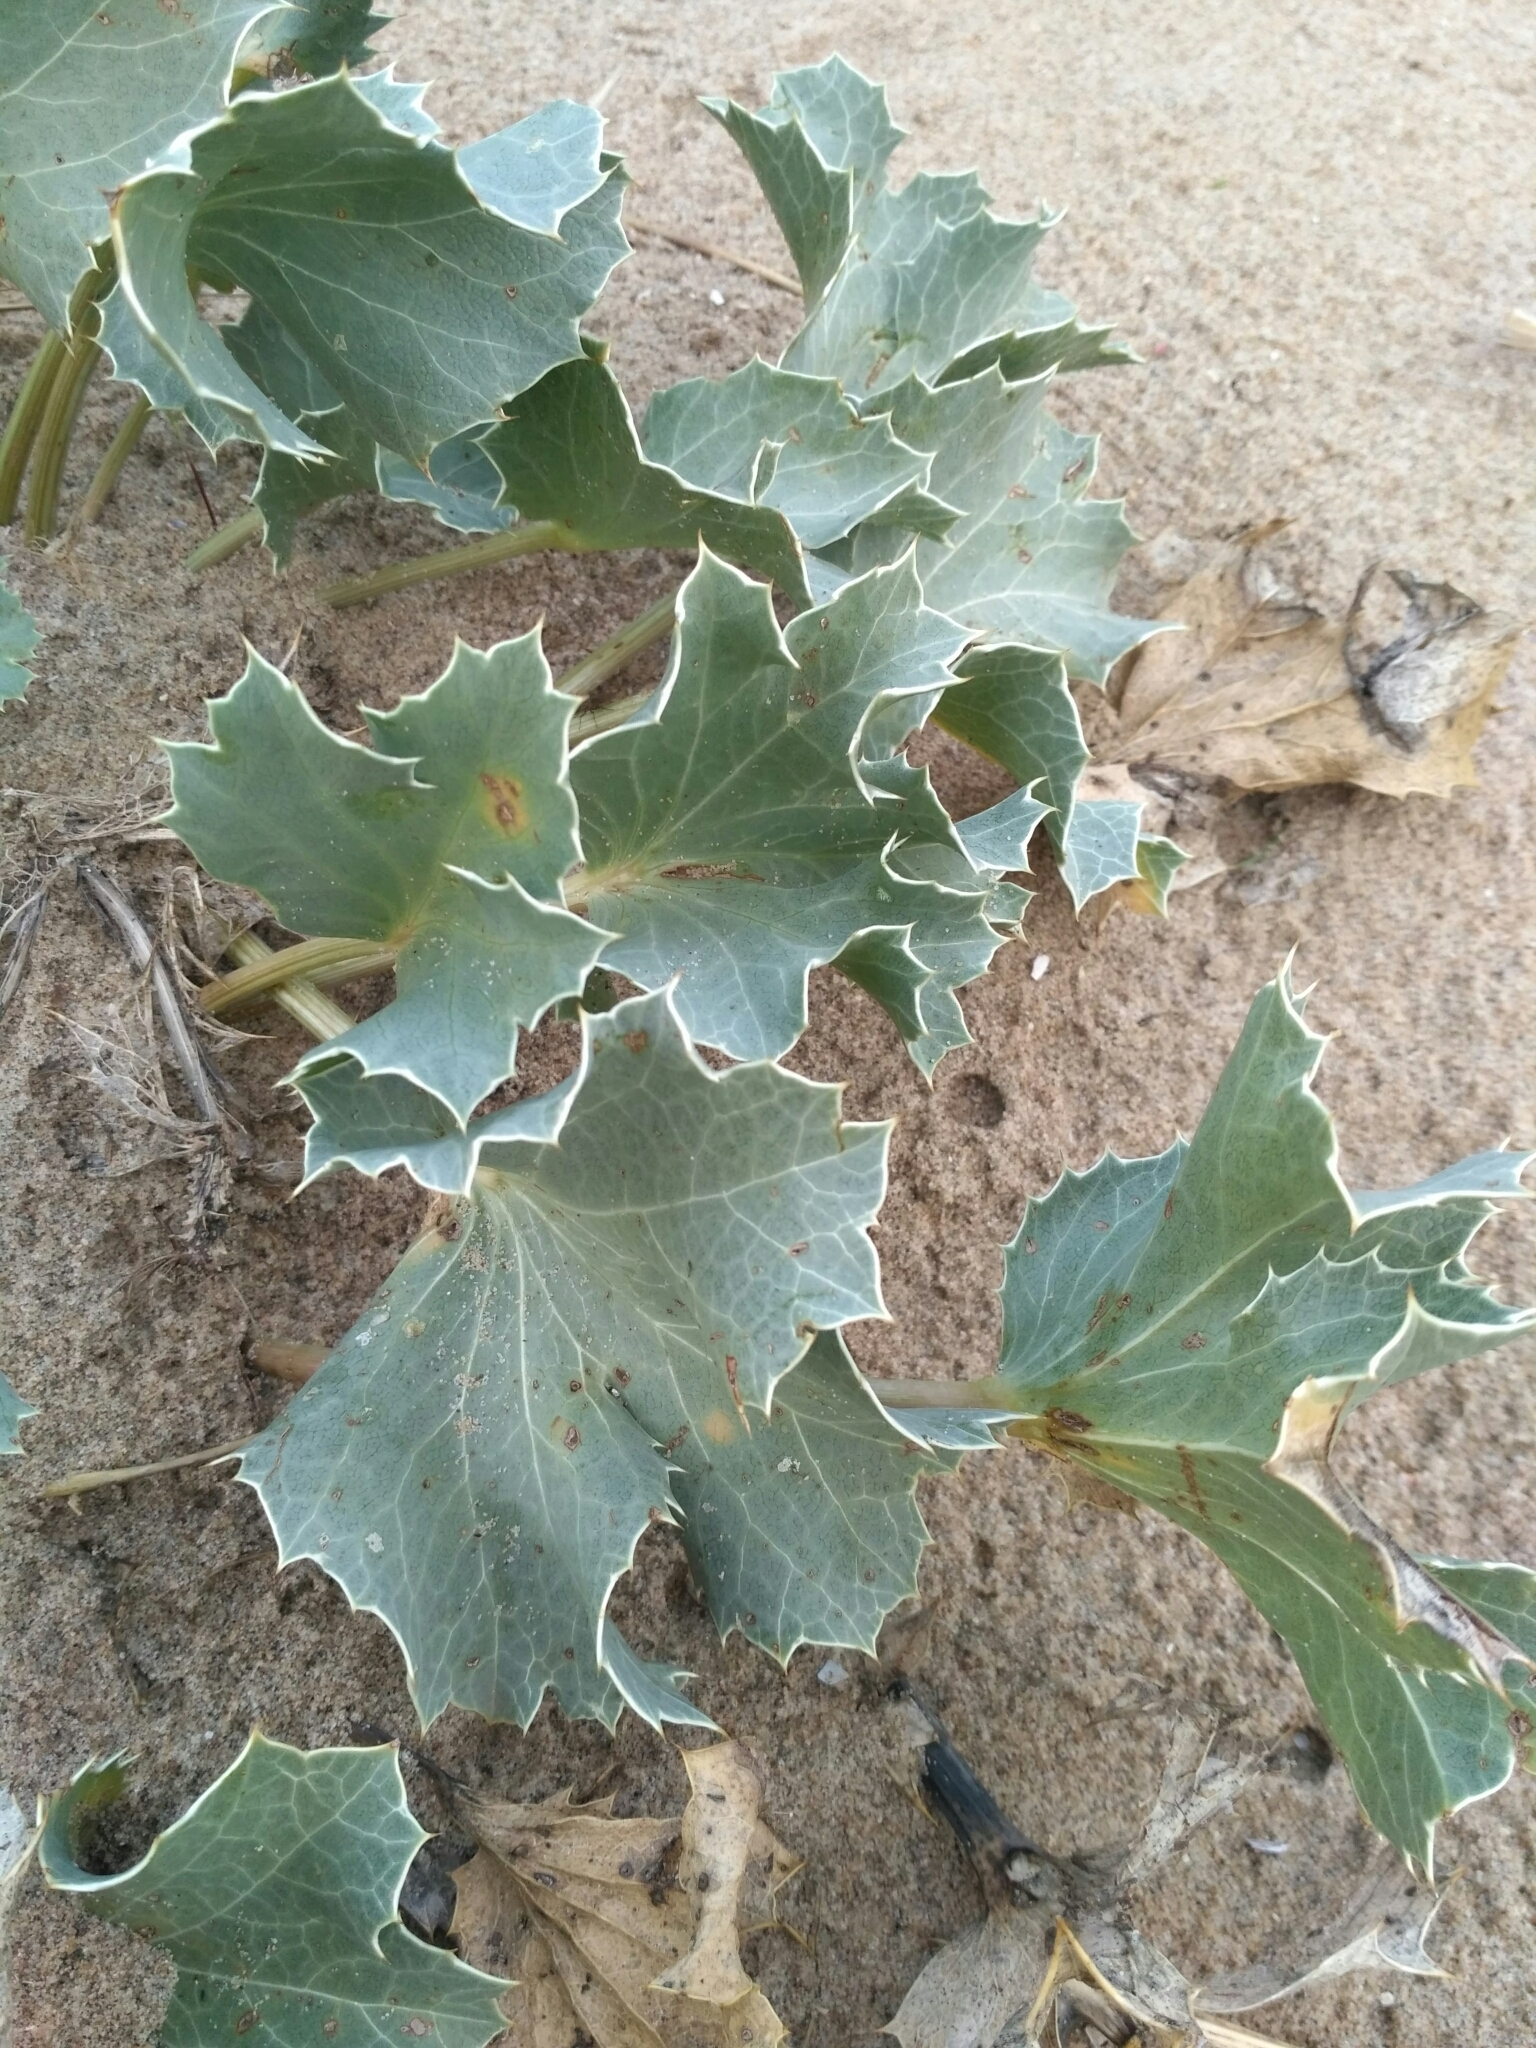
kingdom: Plantae
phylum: Tracheophyta
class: Magnoliopsida
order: Apiales
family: Apiaceae
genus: Eryngium
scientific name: Eryngium maritimum
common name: Sea-holly
